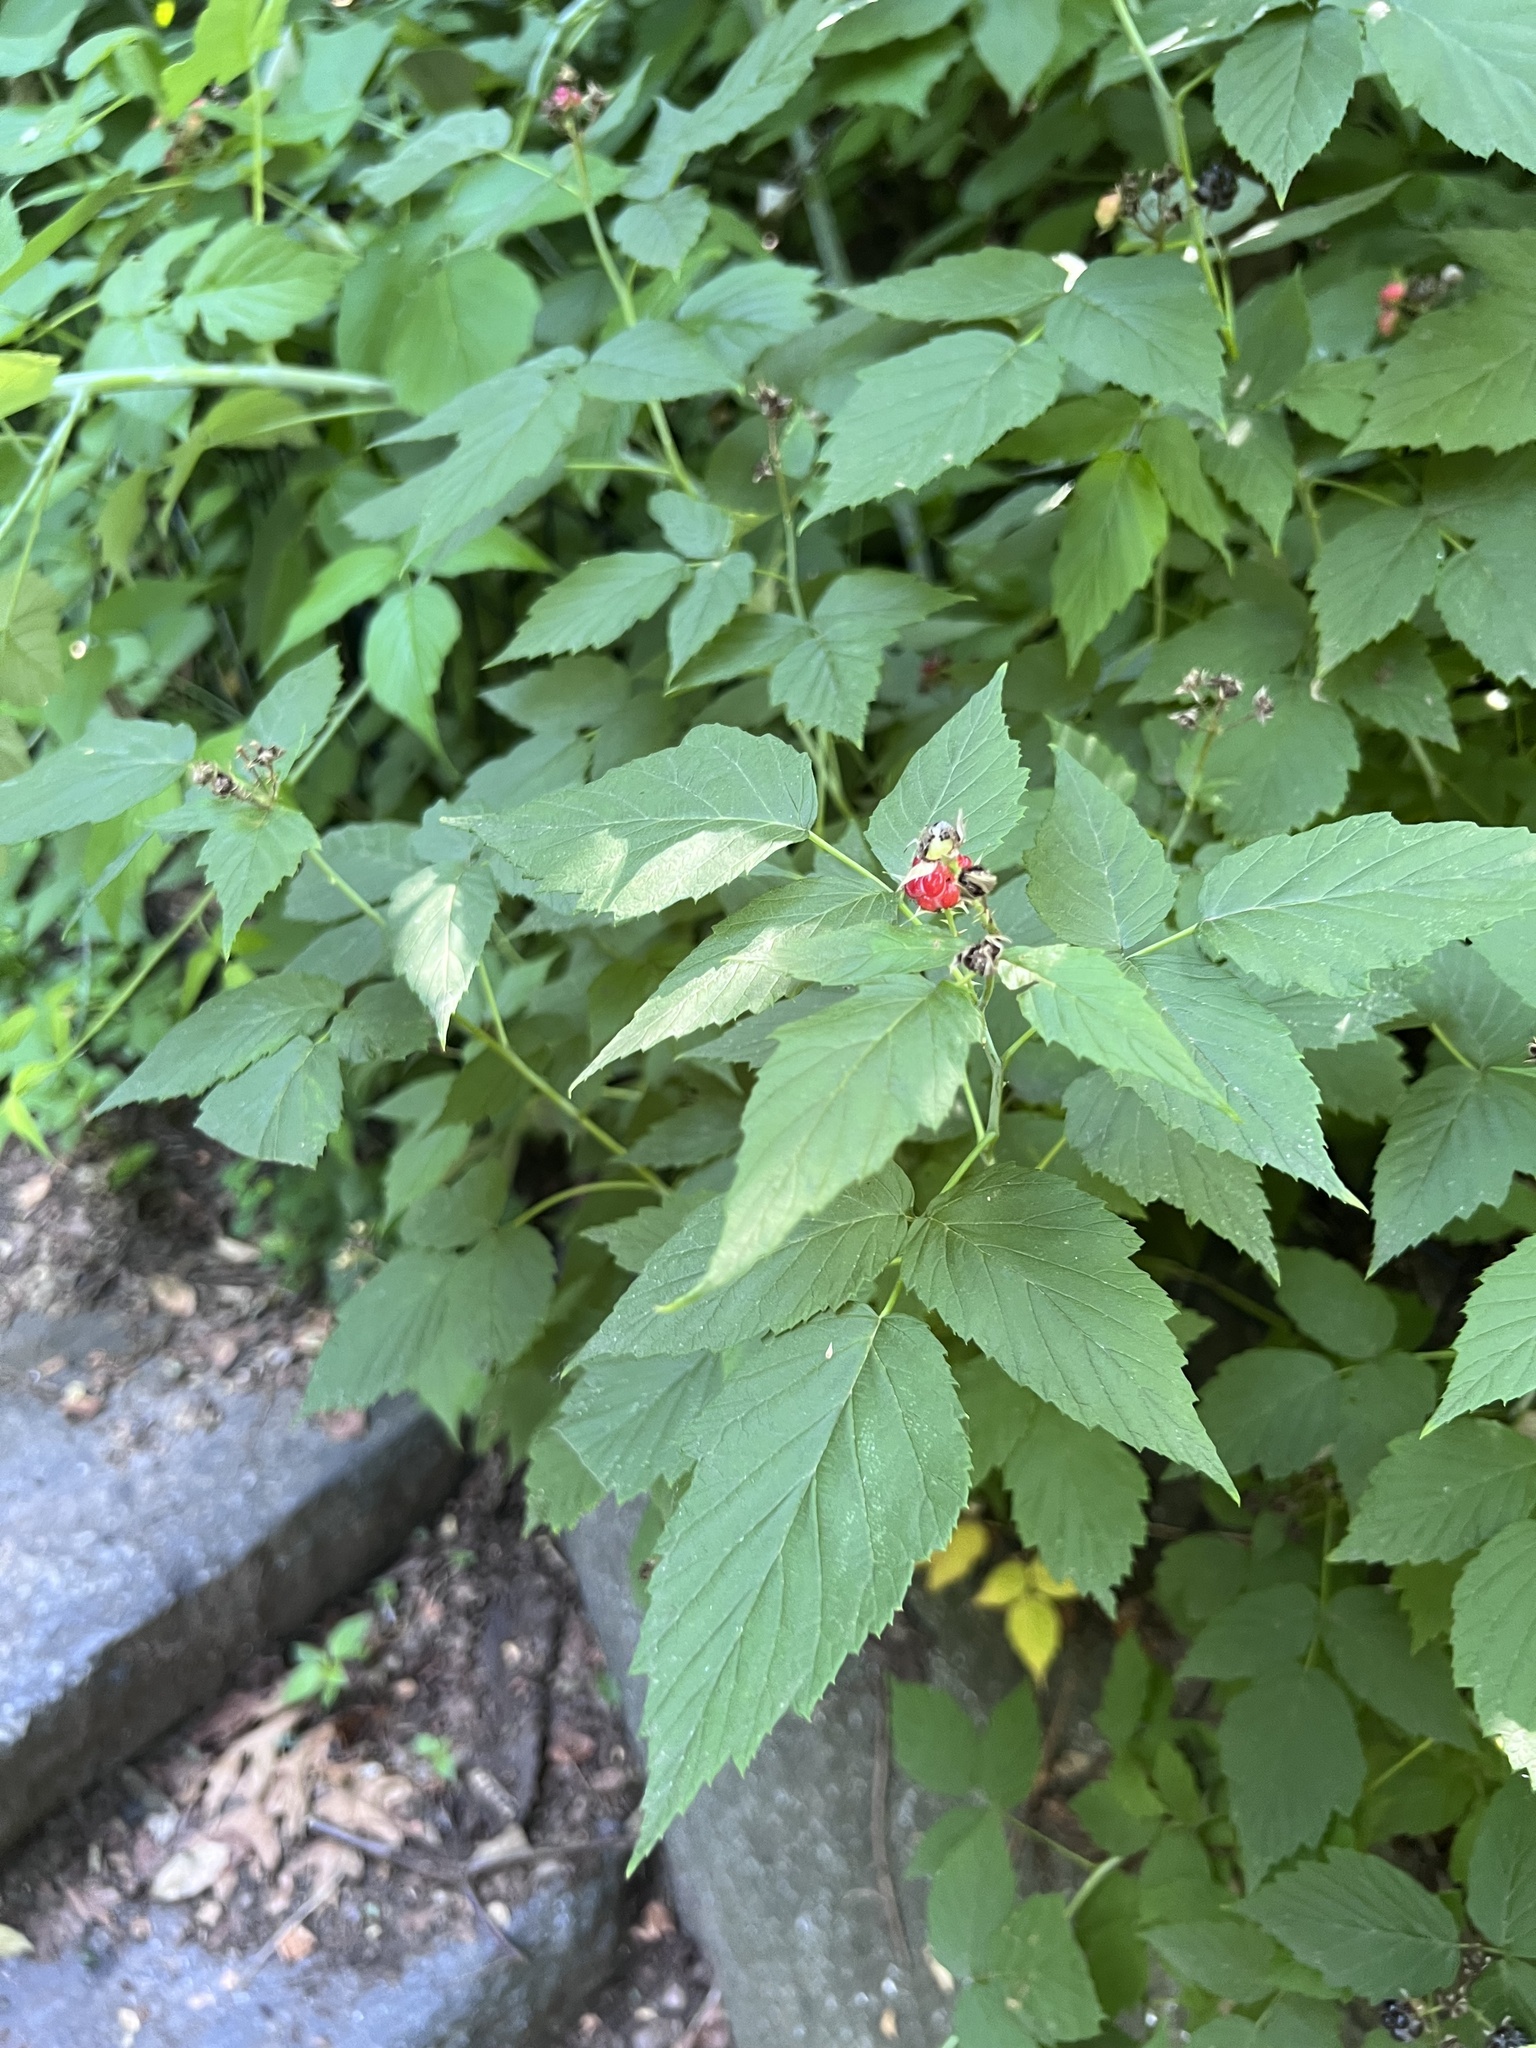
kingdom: Plantae
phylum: Tracheophyta
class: Magnoliopsida
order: Rosales
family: Rosaceae
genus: Rubus
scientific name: Rubus occidentalis
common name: Black raspberry
